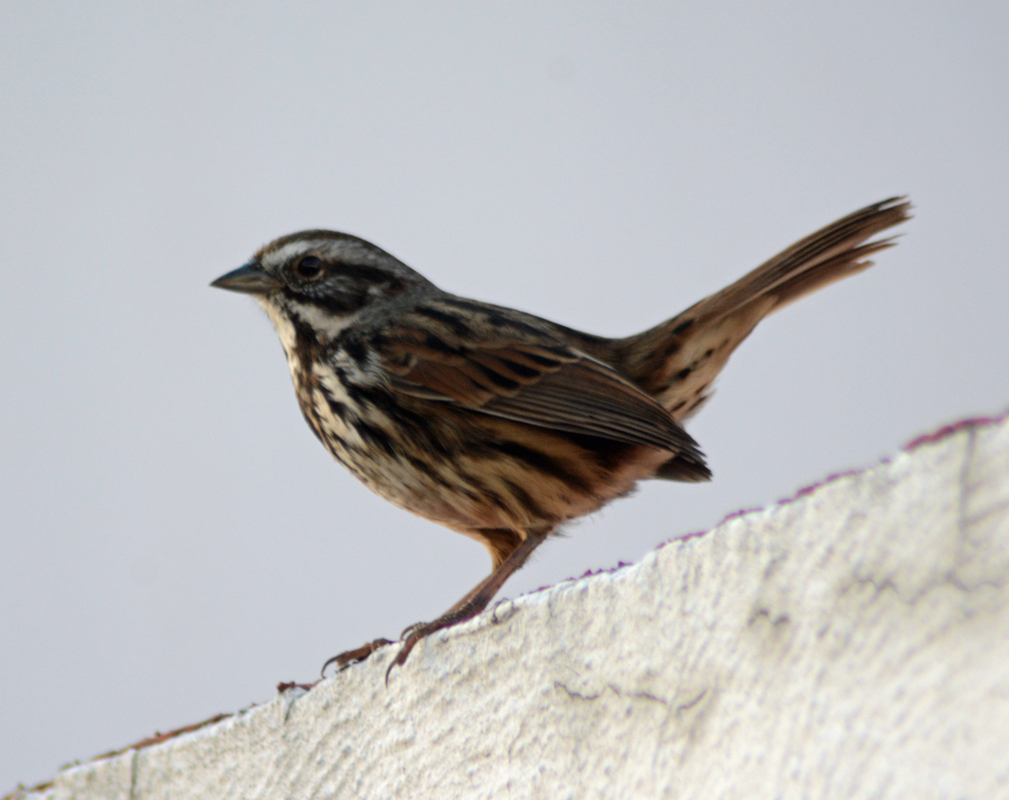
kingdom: Animalia
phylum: Chordata
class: Aves
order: Passeriformes
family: Passerellidae
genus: Melospiza
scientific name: Melospiza melodia
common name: Song sparrow
